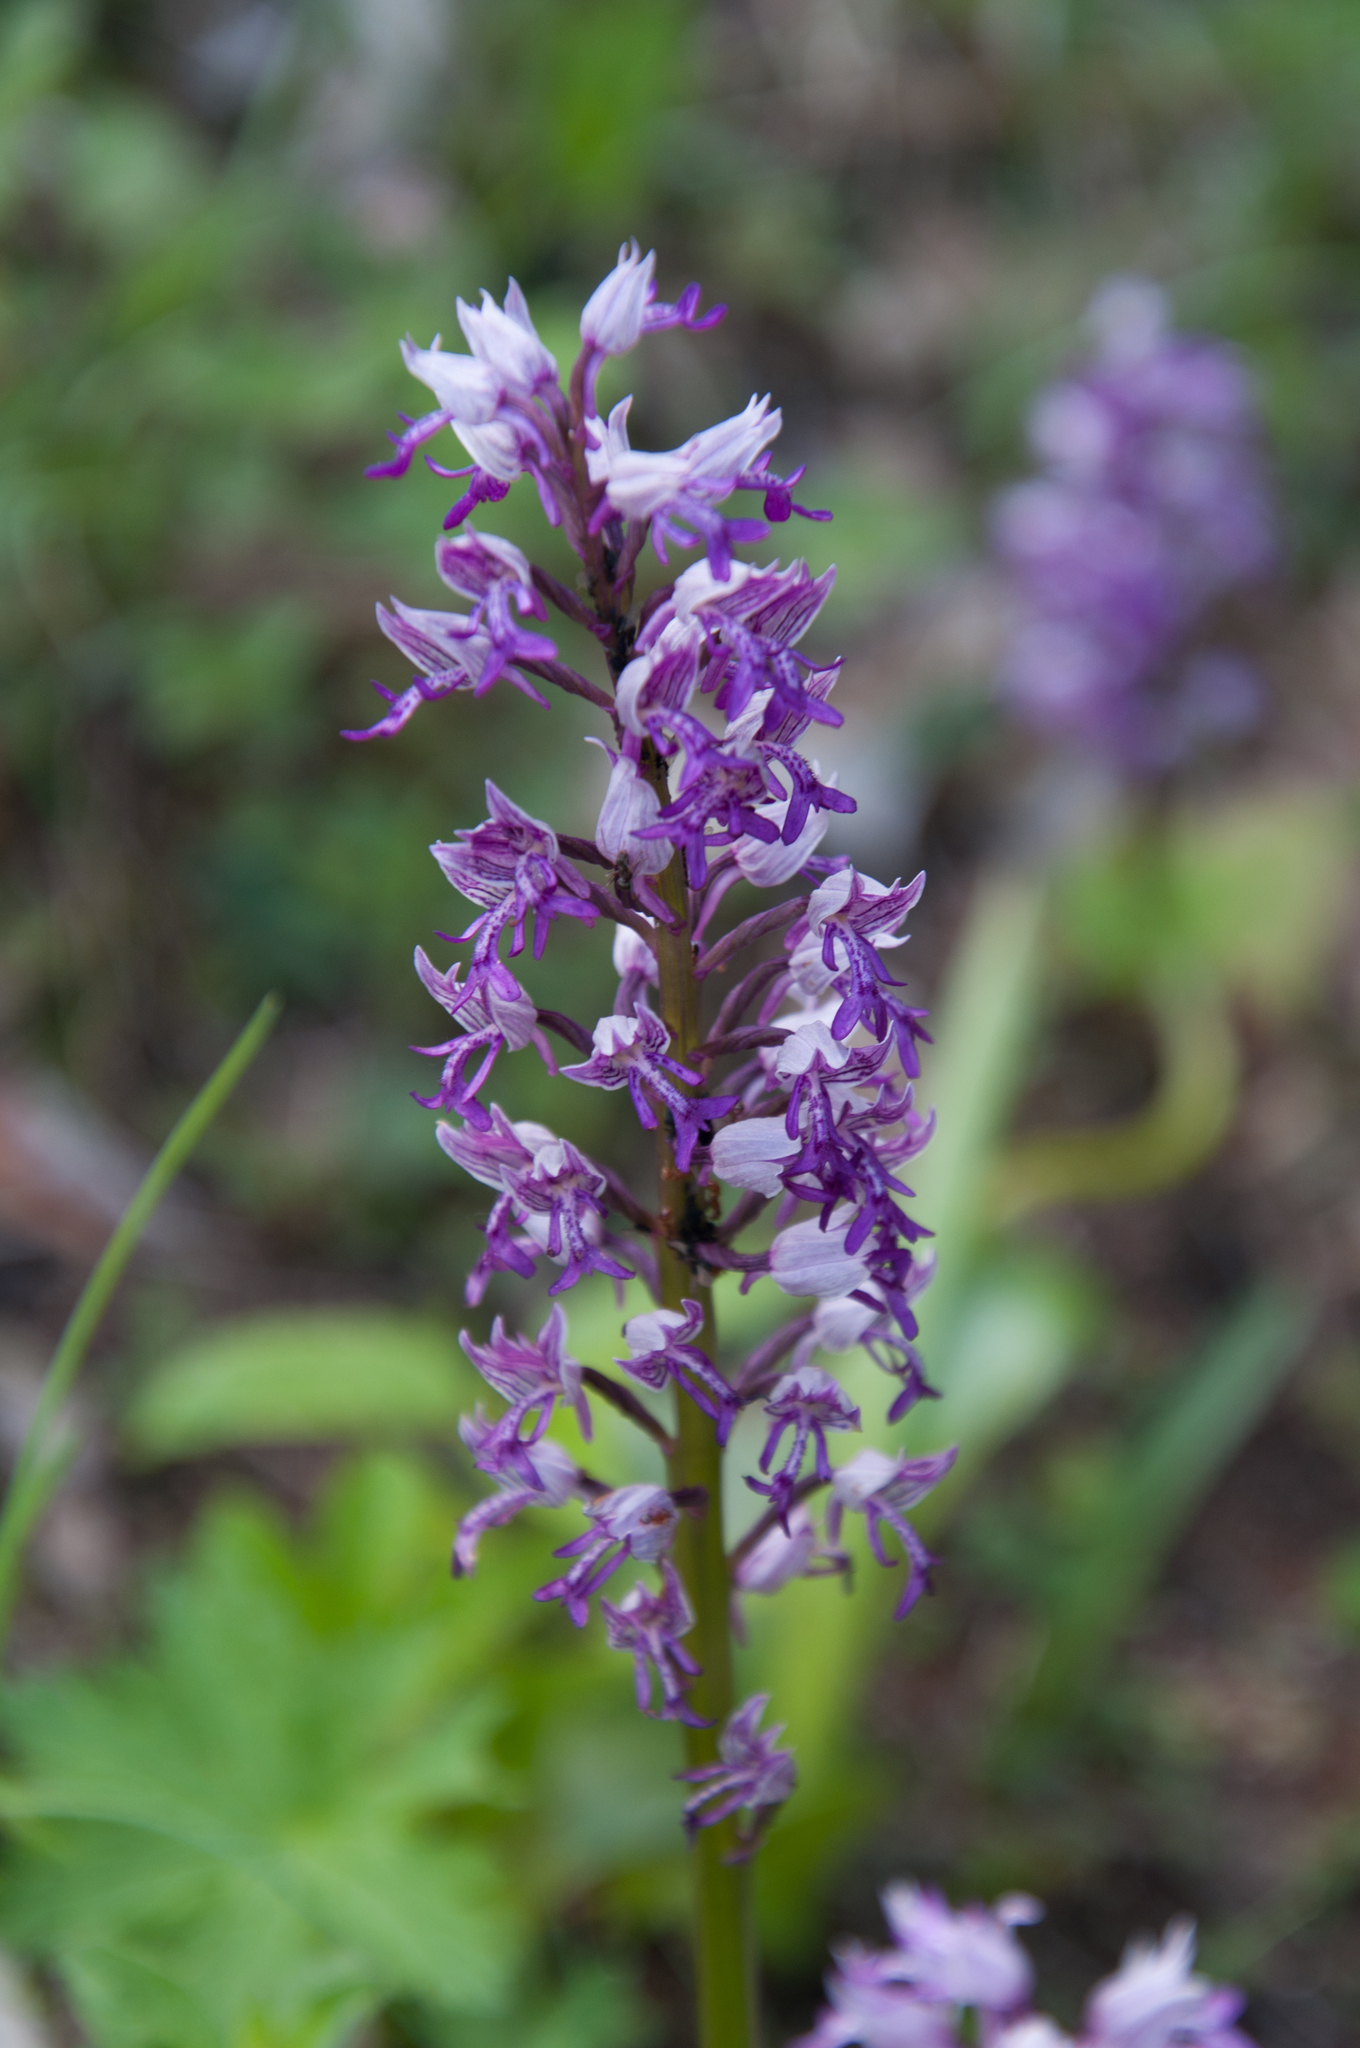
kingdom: Plantae
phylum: Tracheophyta
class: Liliopsida
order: Asparagales
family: Orchidaceae
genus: Orchis
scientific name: Orchis militaris
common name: Military orchid
